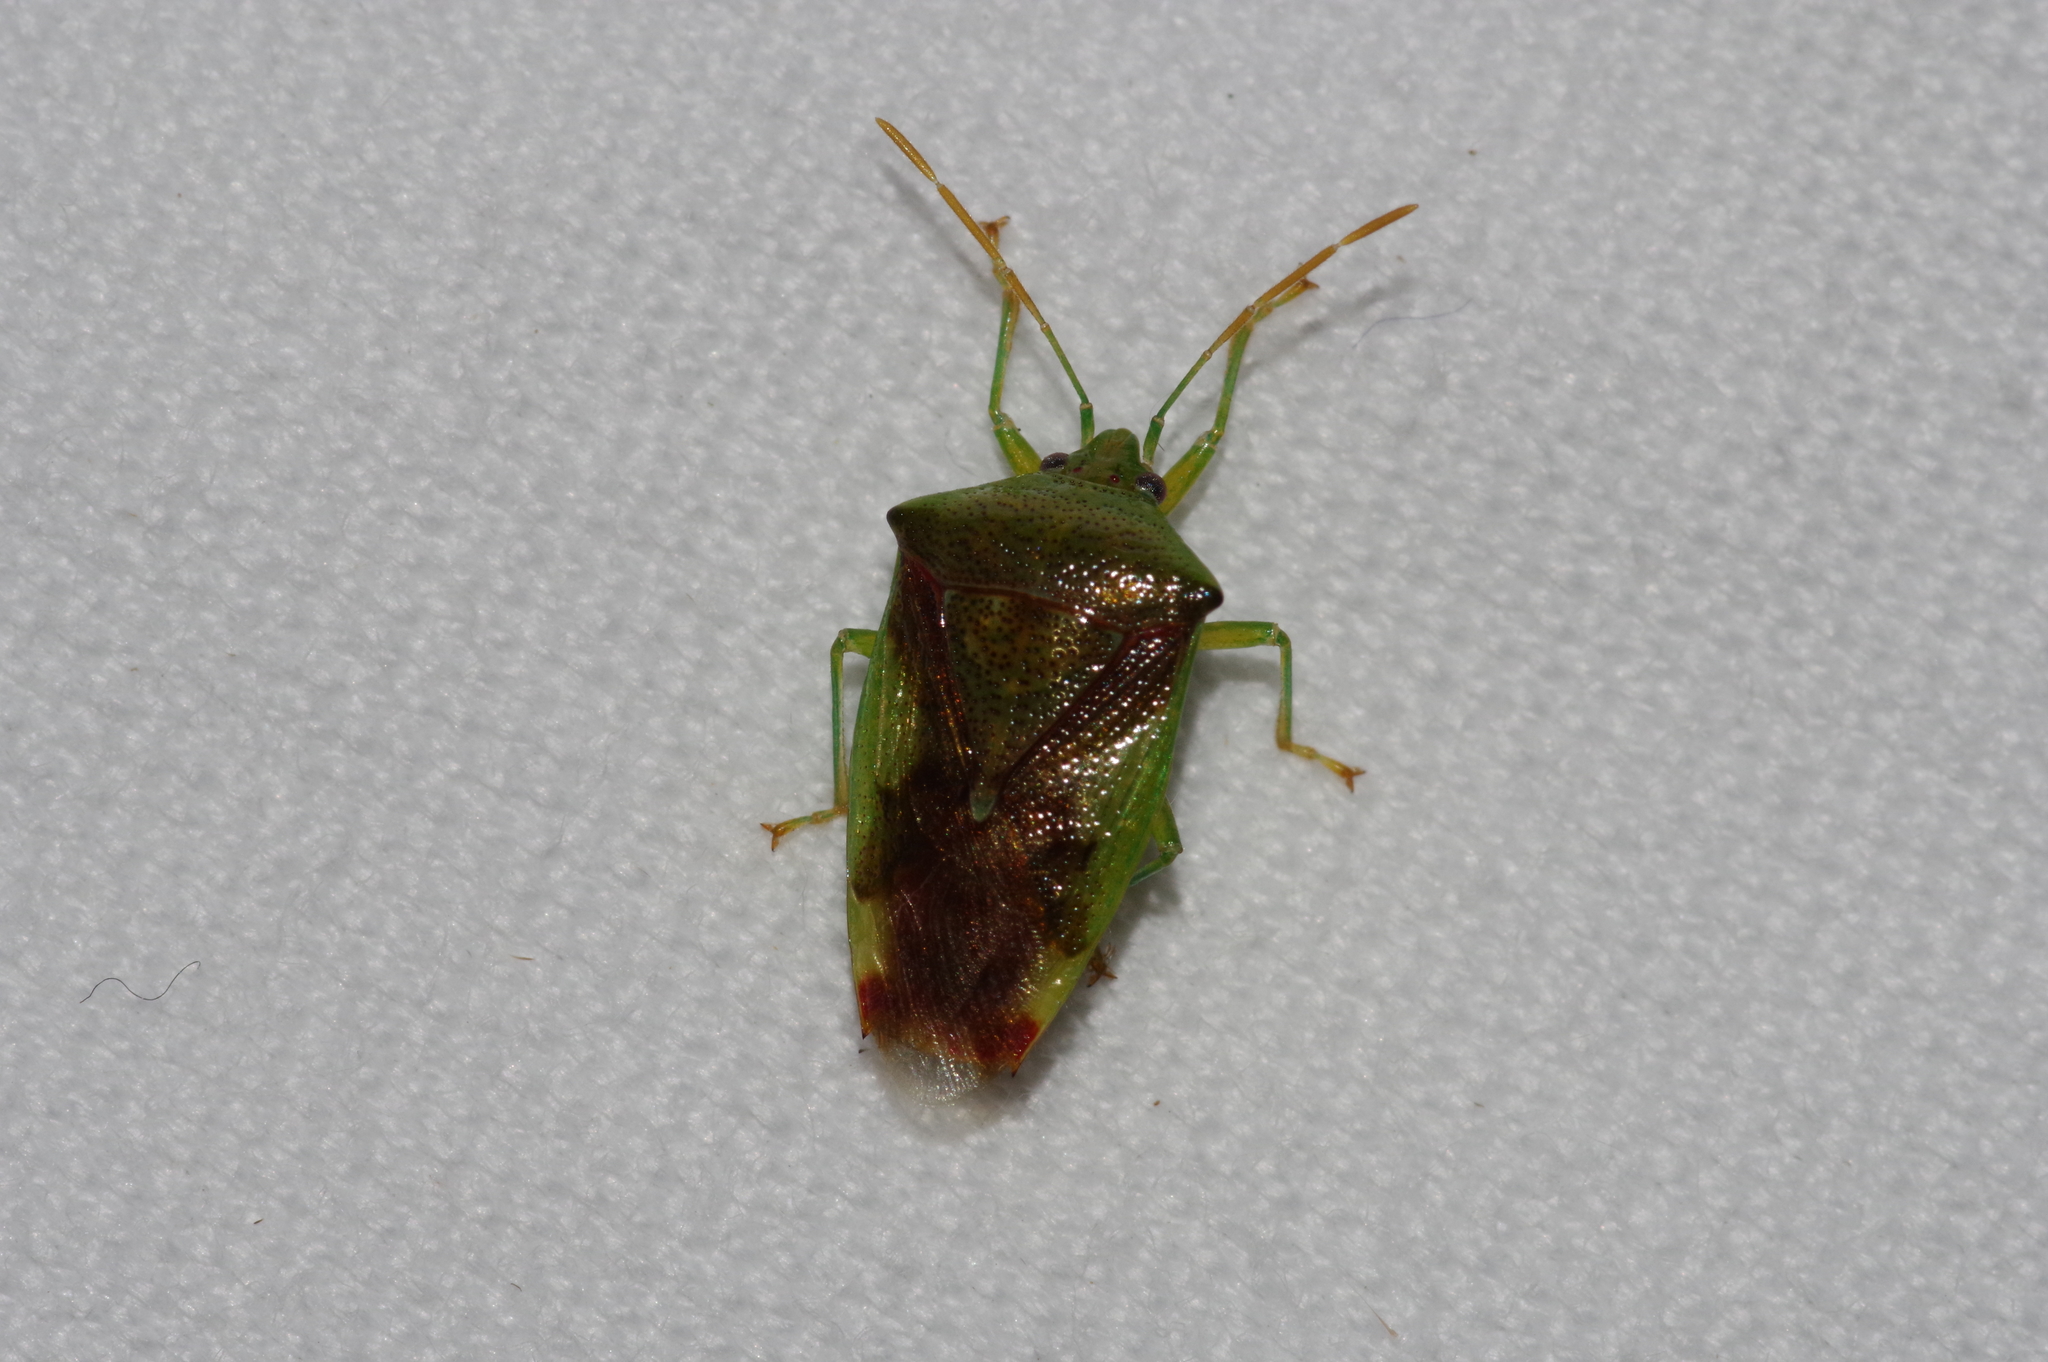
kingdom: Animalia
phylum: Arthropoda
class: Insecta
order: Hemiptera
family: Acanthosomatidae
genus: Elasmostethus
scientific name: Elasmostethus nubilus
